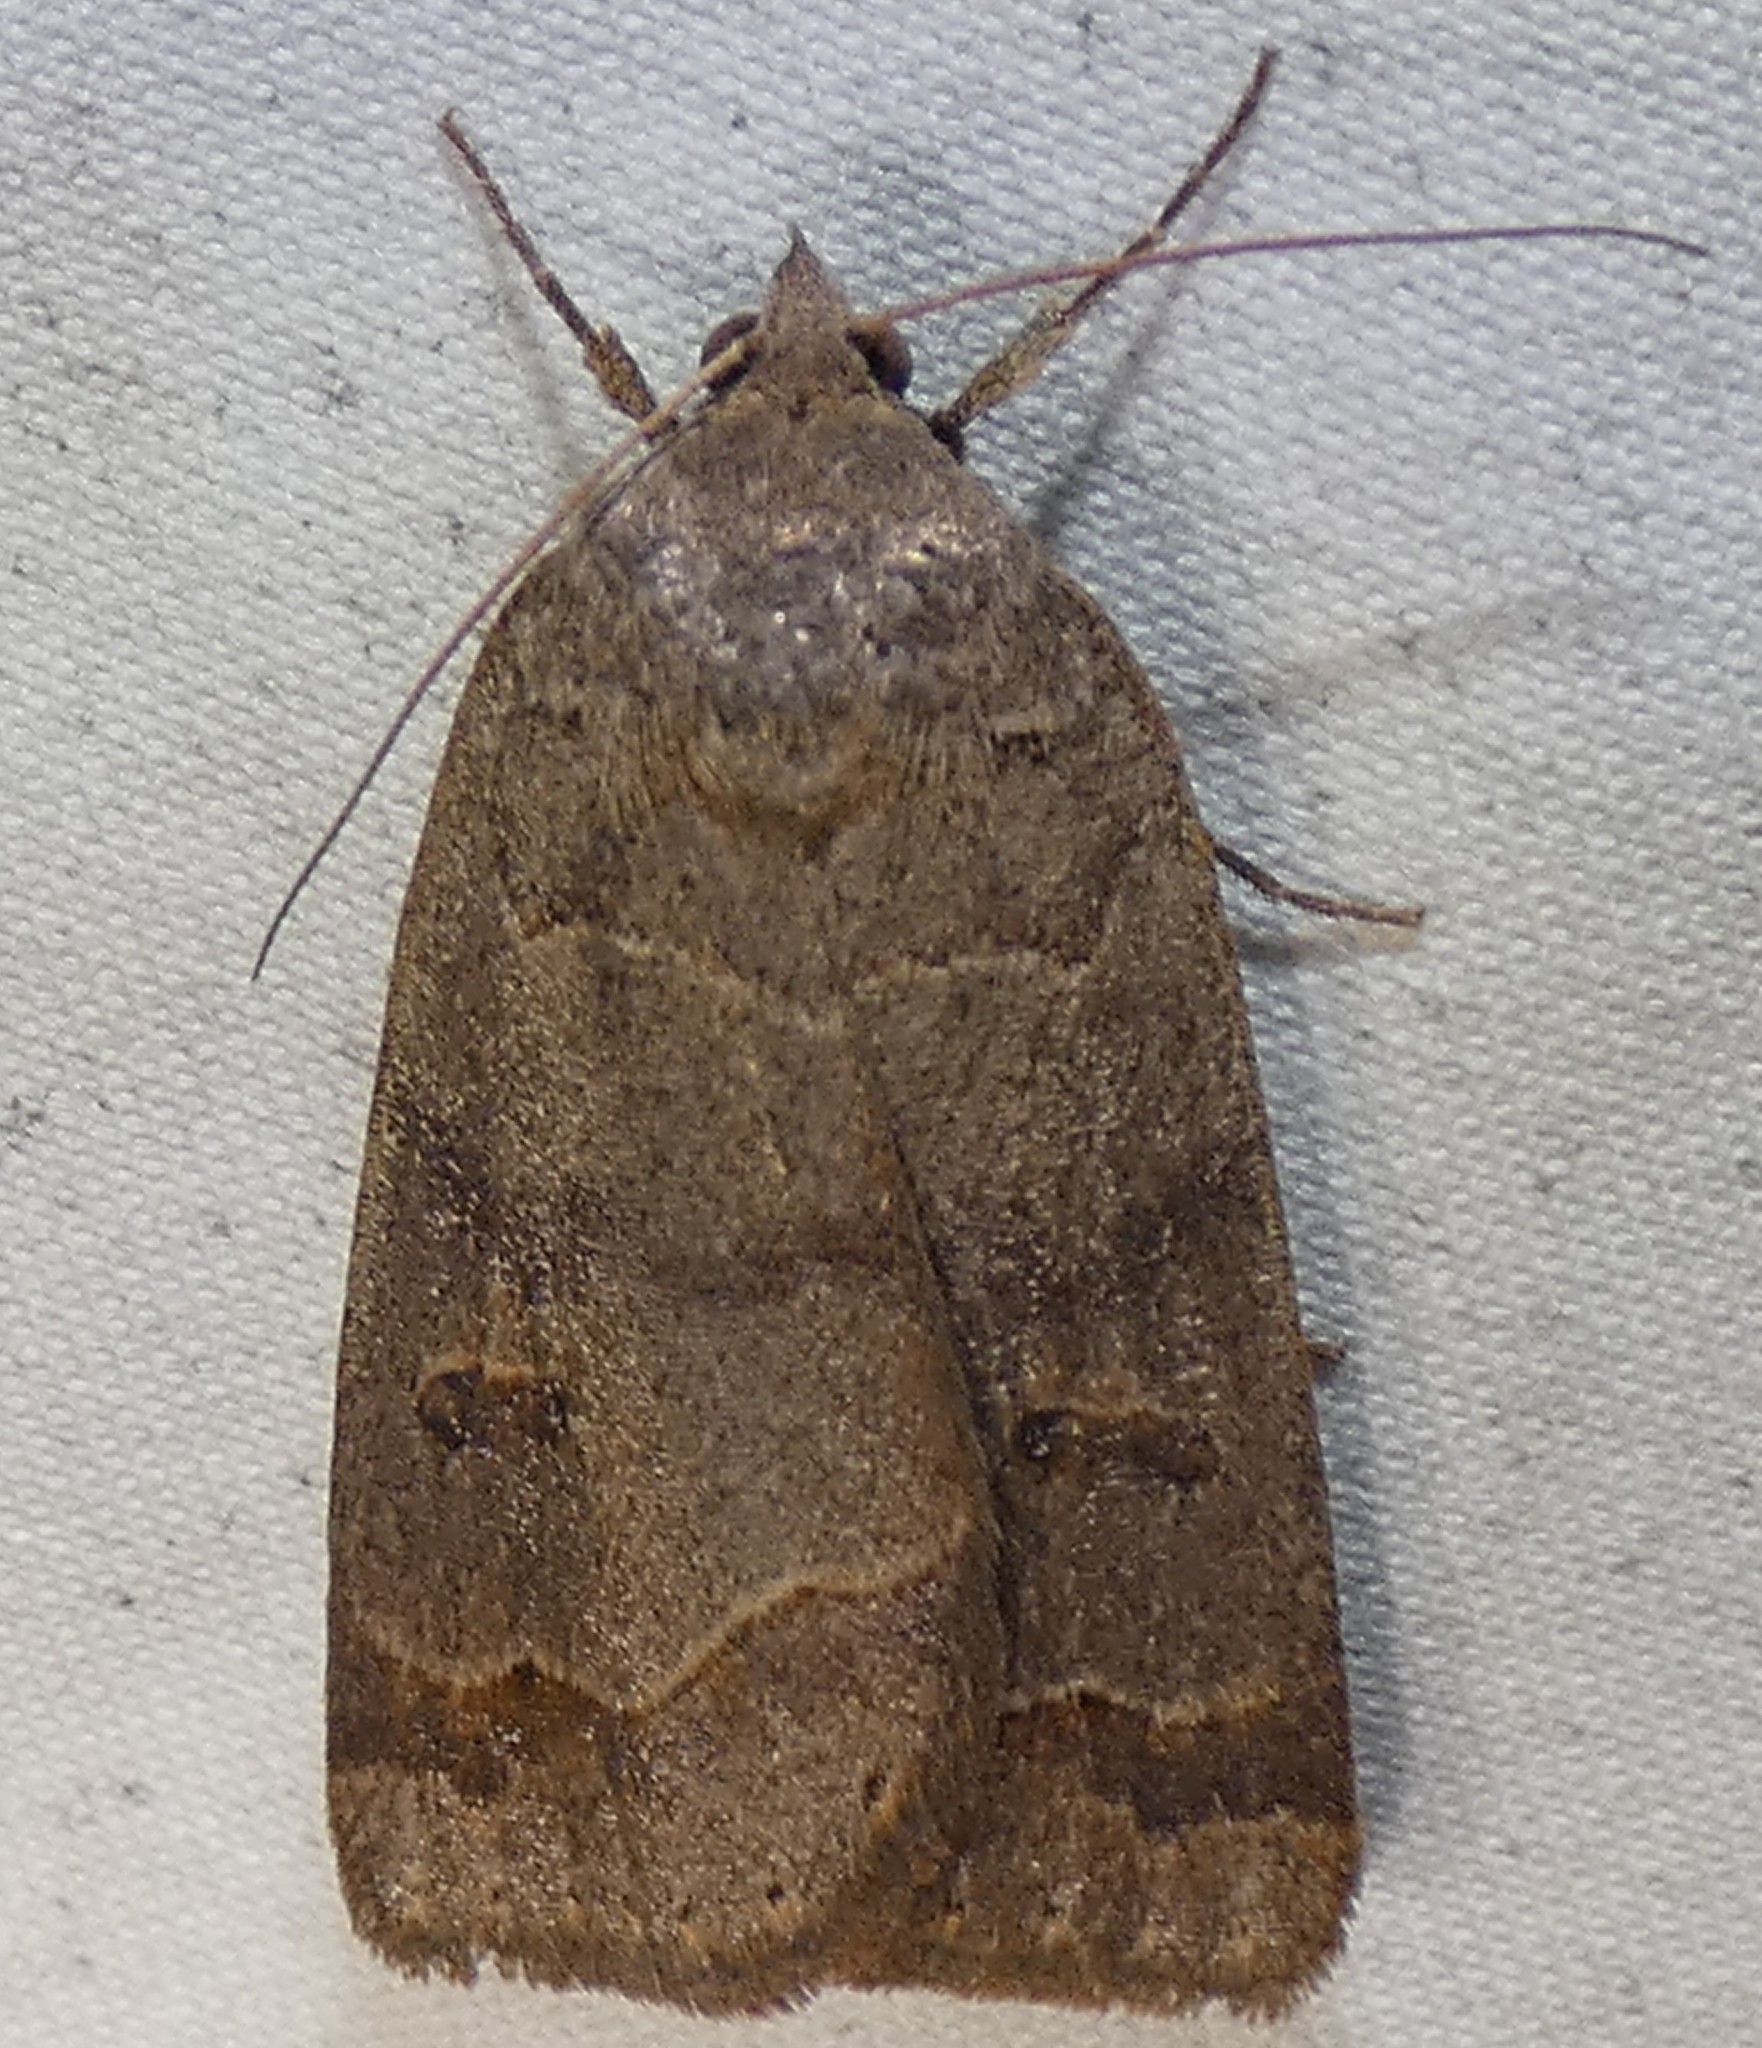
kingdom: Animalia
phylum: Arthropoda
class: Insecta
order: Lepidoptera
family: Erebidae
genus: Phoberia
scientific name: Phoberia atomaris
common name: Common oak moth
